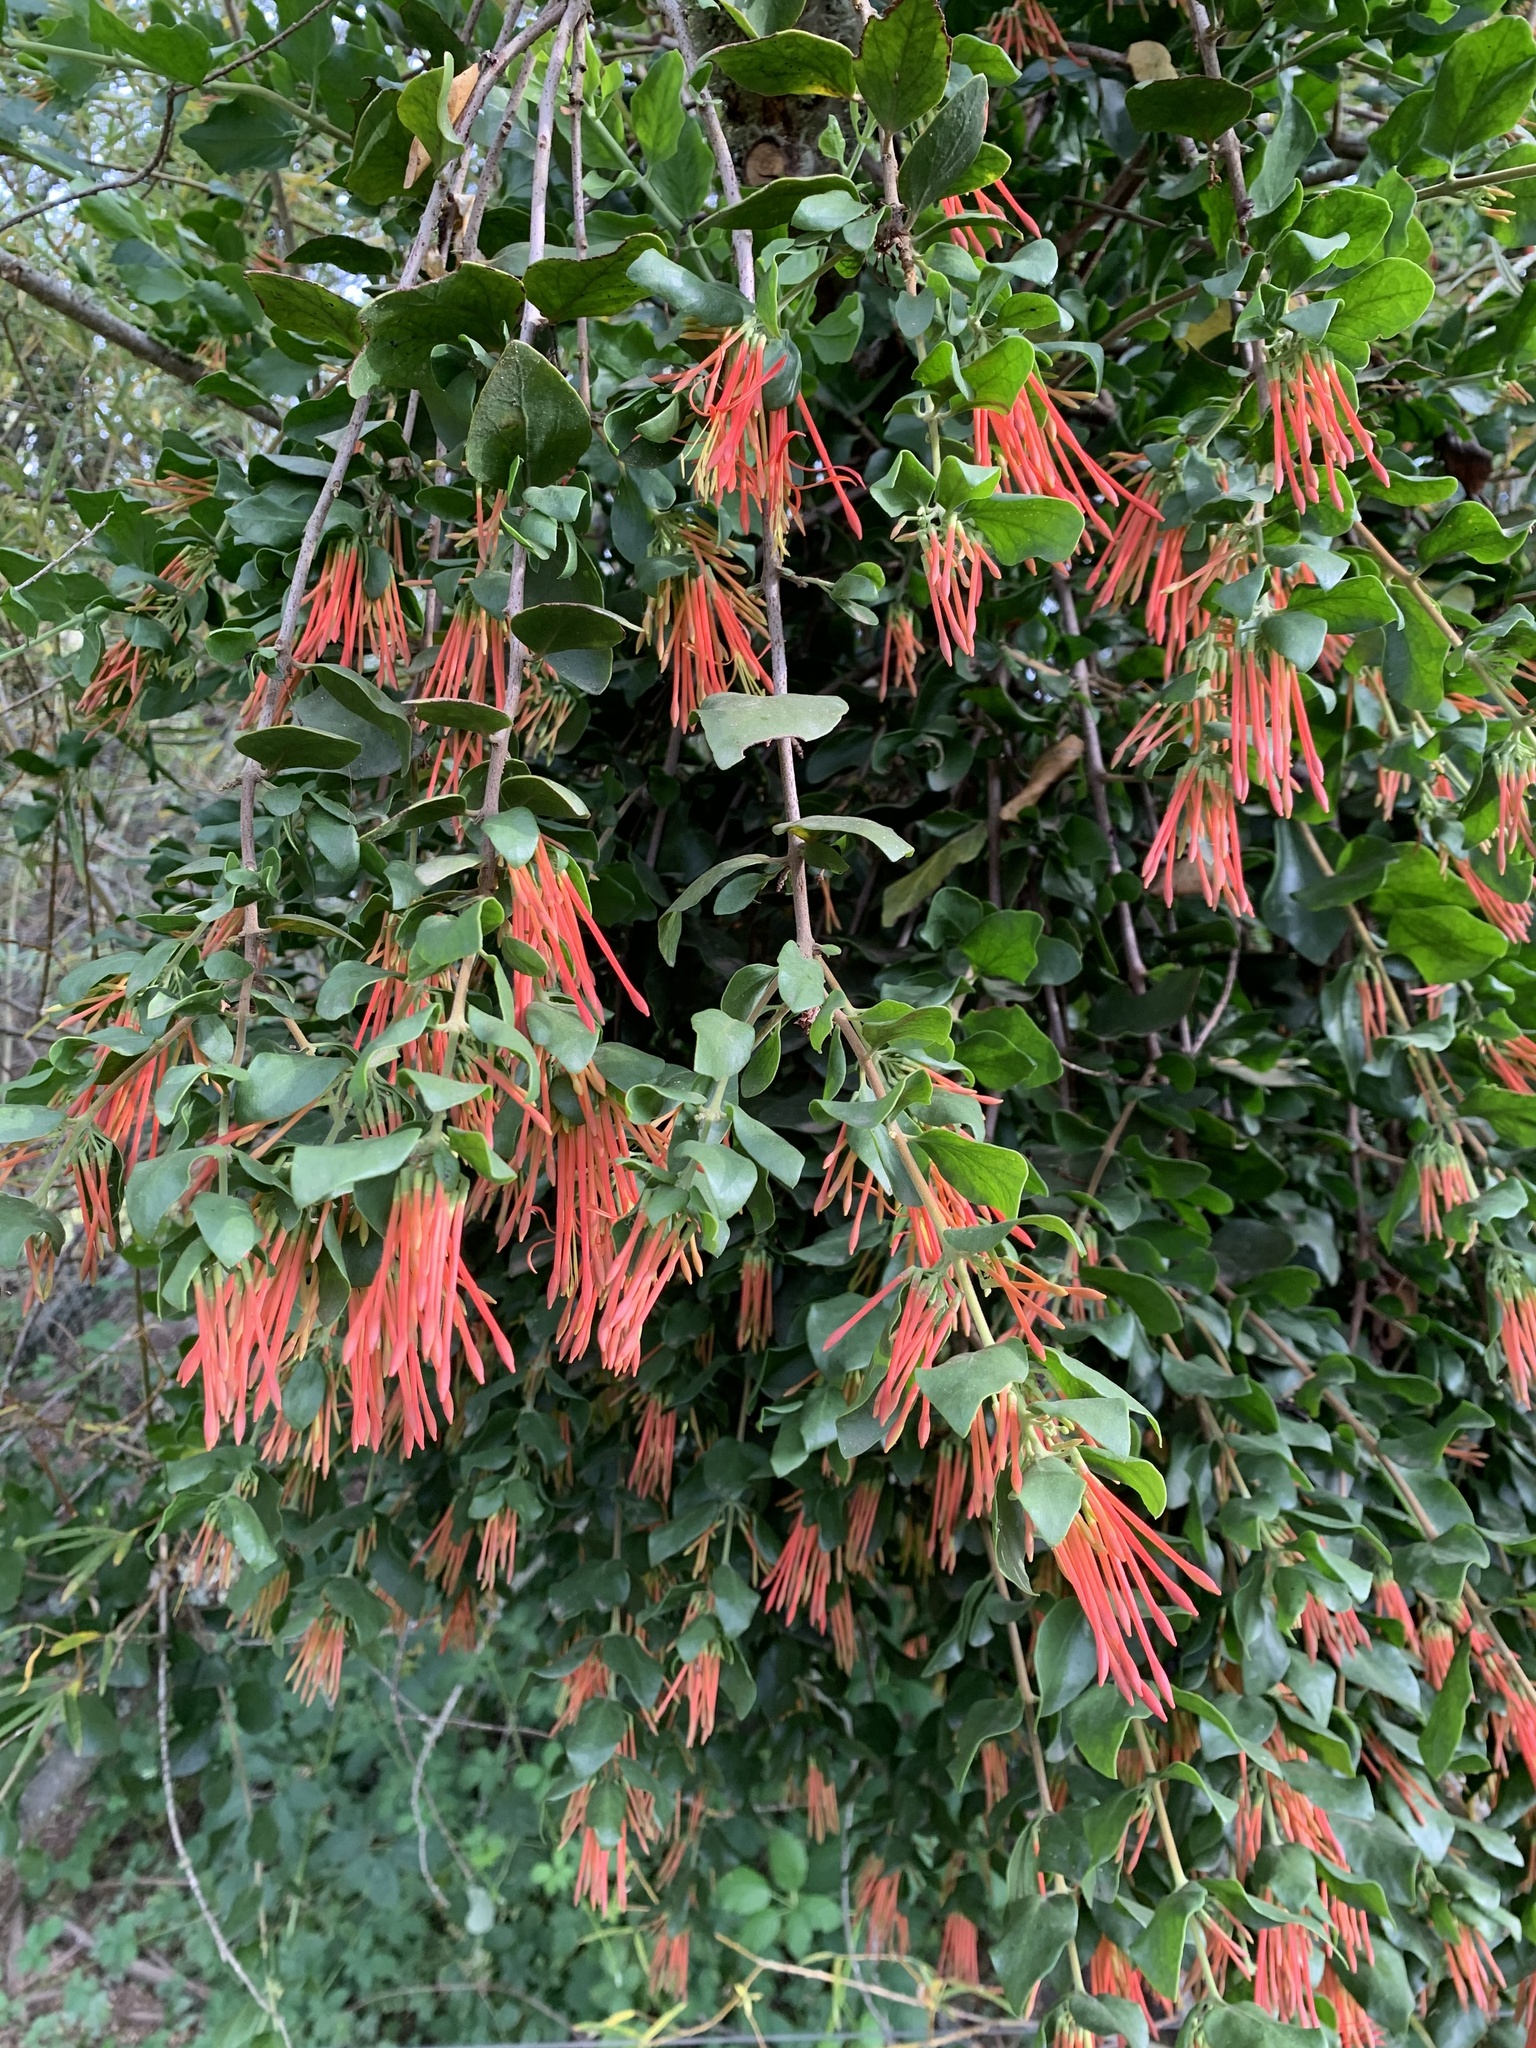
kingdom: Plantae
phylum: Tracheophyta
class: Magnoliopsida
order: Santalales
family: Loranthaceae
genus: Tristerix
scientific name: Tristerix corymbosus
